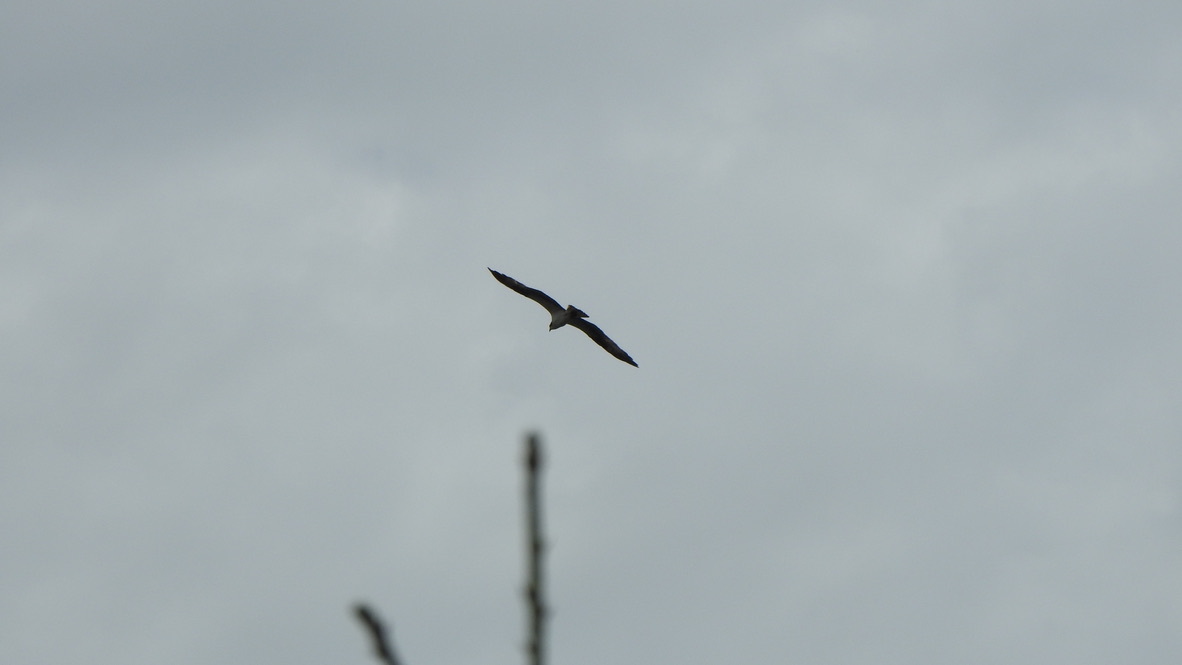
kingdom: Animalia
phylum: Chordata
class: Aves
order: Accipitriformes
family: Pandionidae
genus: Pandion
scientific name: Pandion haliaetus
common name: Osprey
